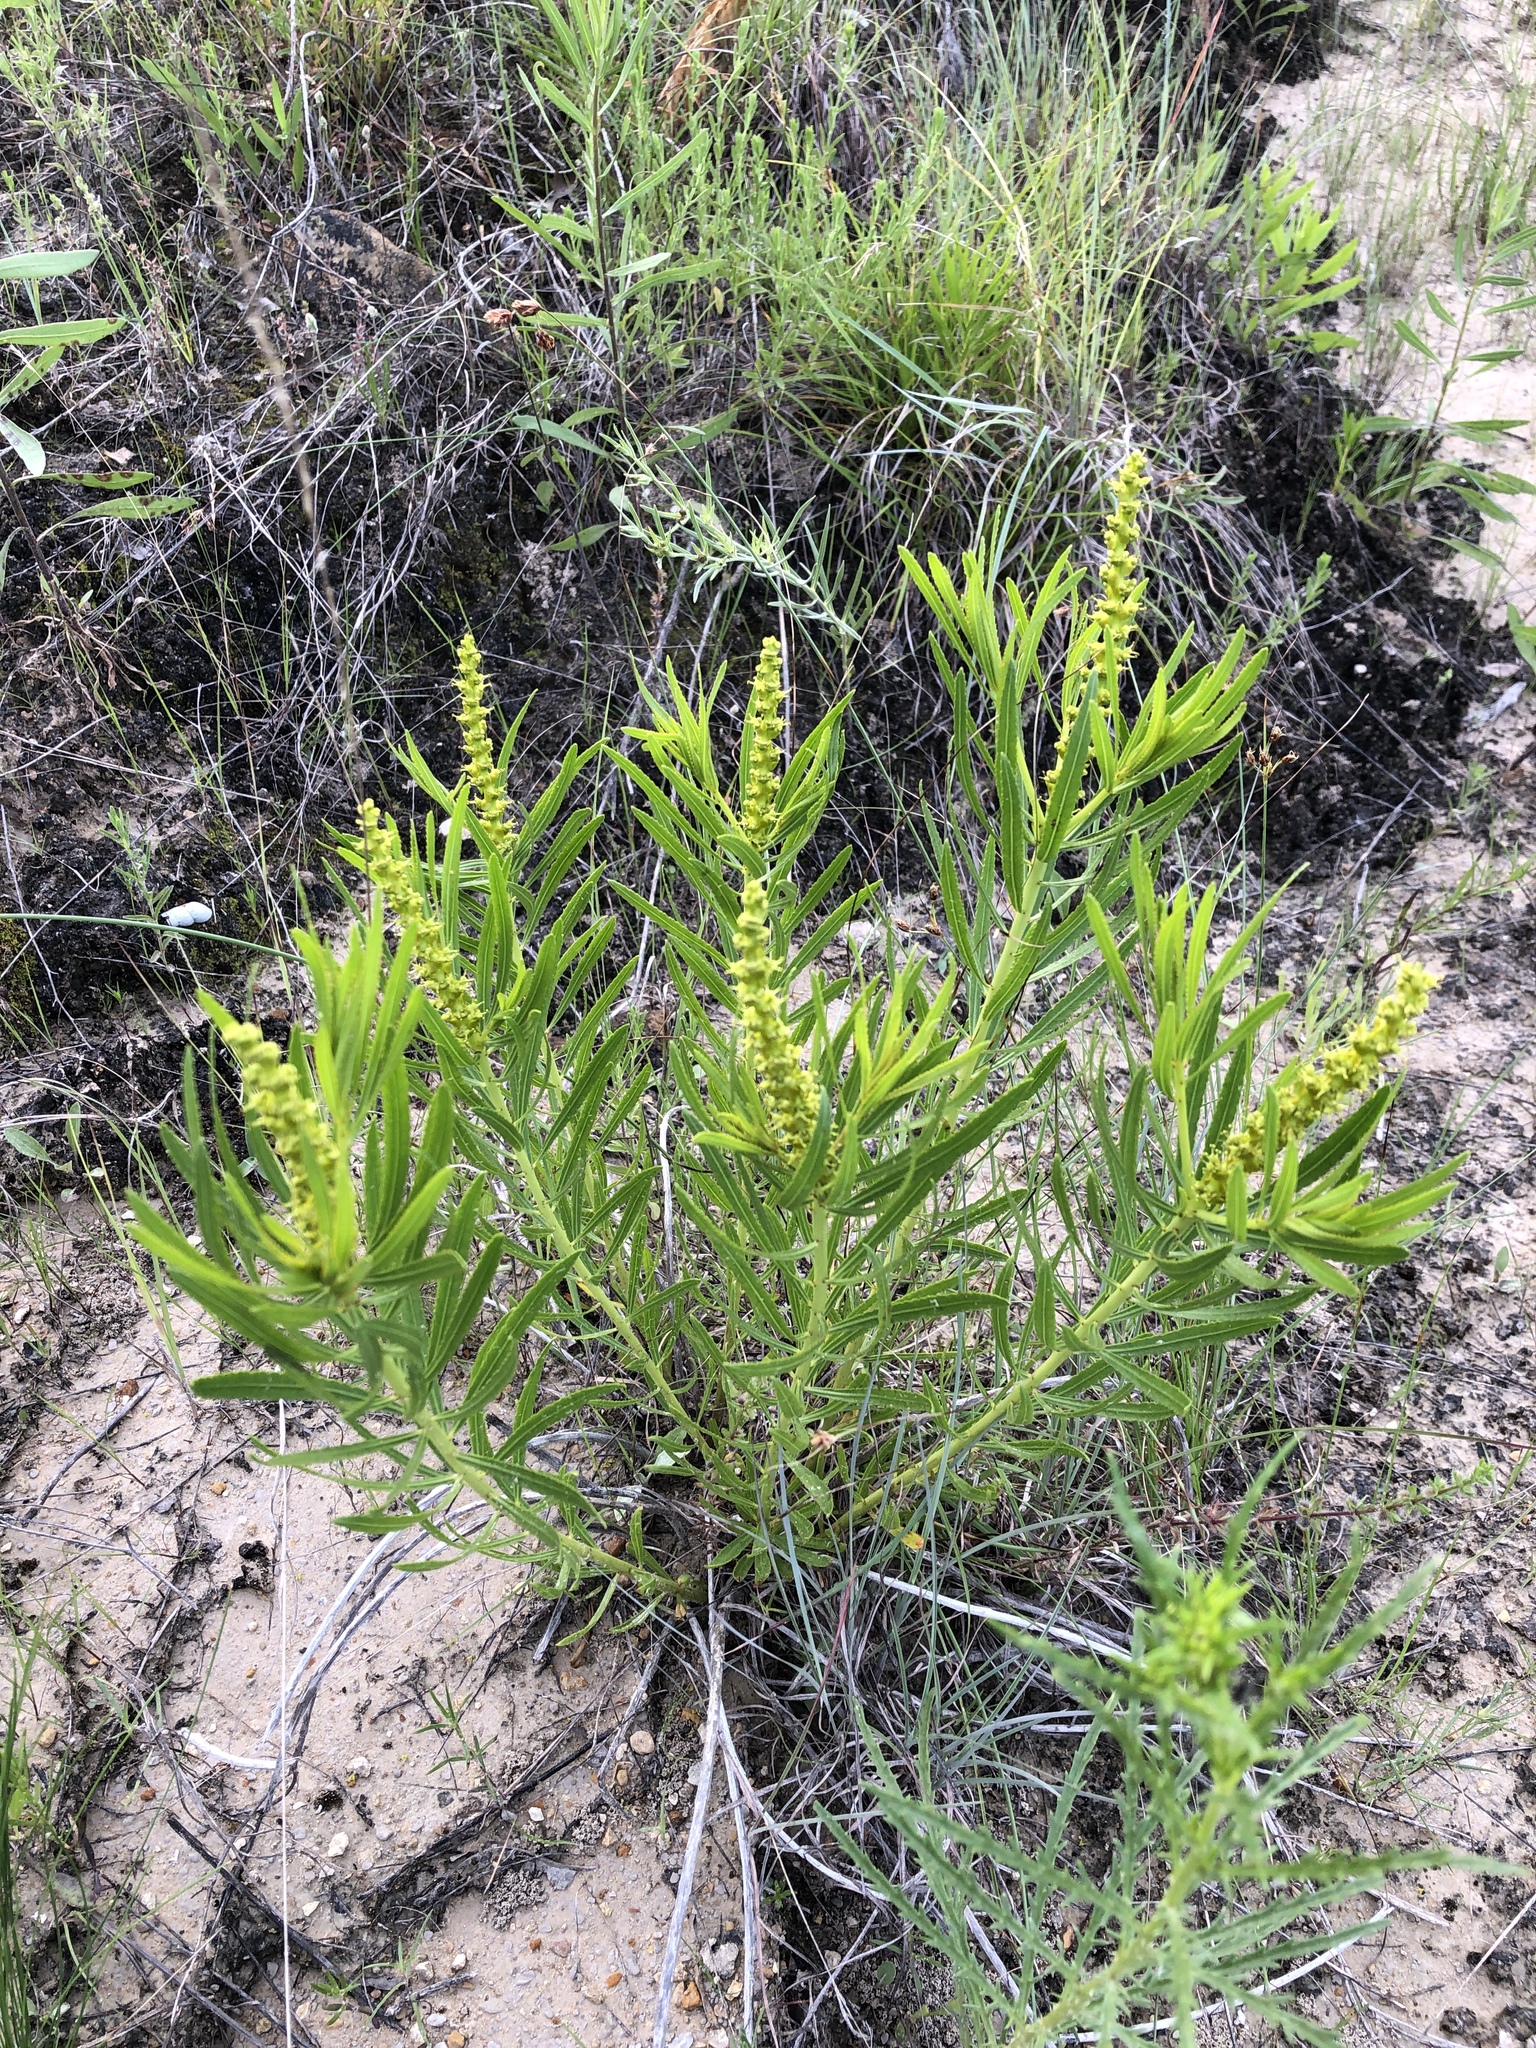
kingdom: Plantae
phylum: Tracheophyta
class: Magnoliopsida
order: Malpighiales
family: Euphorbiaceae
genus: Stillingia
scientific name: Stillingia texana
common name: Texas stillingia
